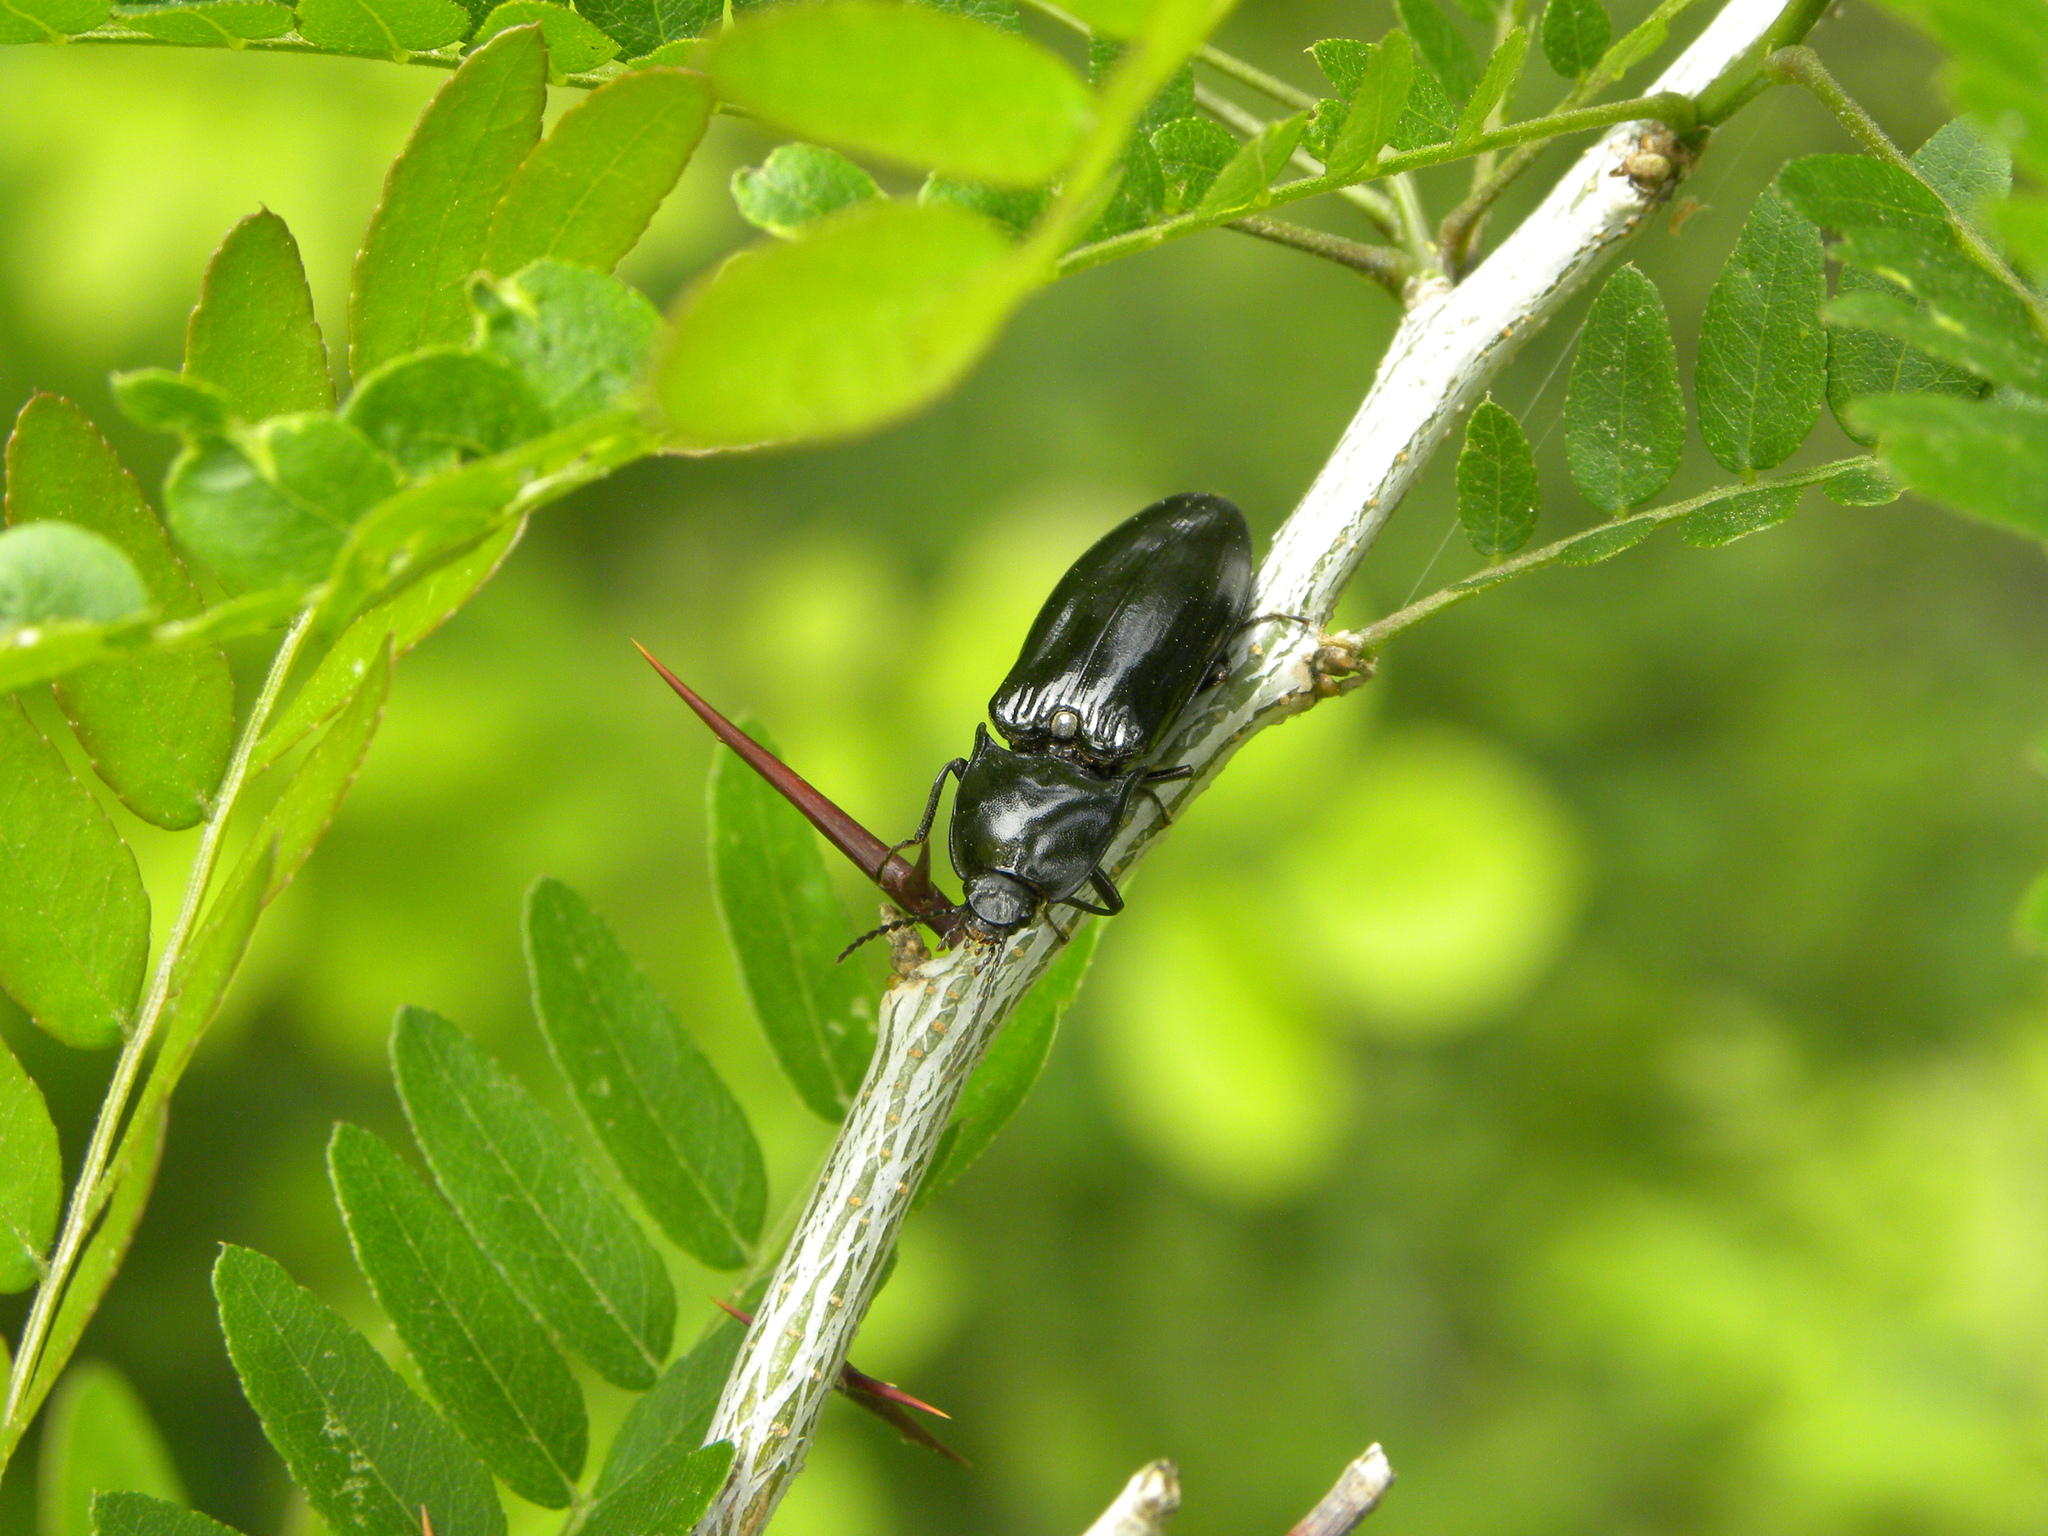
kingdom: Animalia
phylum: Arthropoda
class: Insecta
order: Coleoptera
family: Elateridae
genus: Melanactes
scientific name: Melanactes piceus
